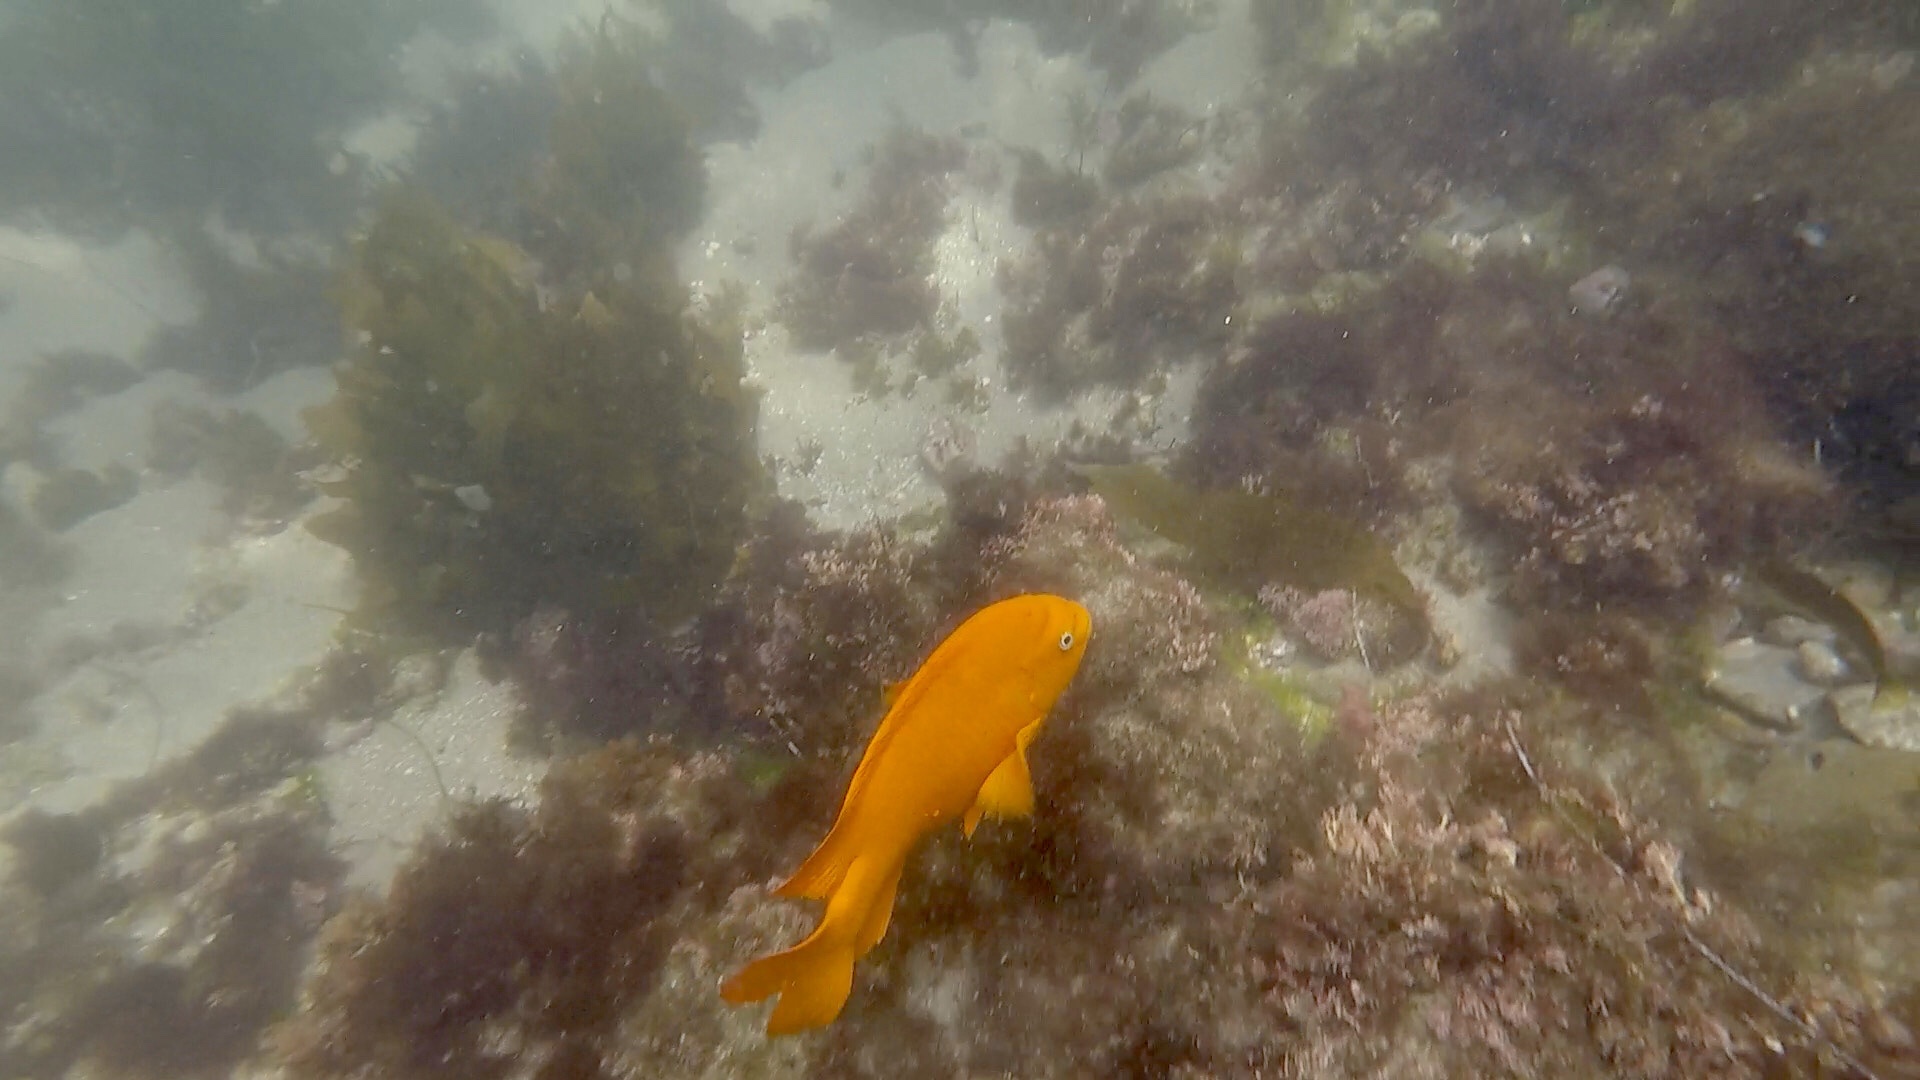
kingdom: Animalia
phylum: Chordata
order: Perciformes
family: Pomacentridae
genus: Hypsypops
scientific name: Hypsypops rubicundus
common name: Garibaldi
